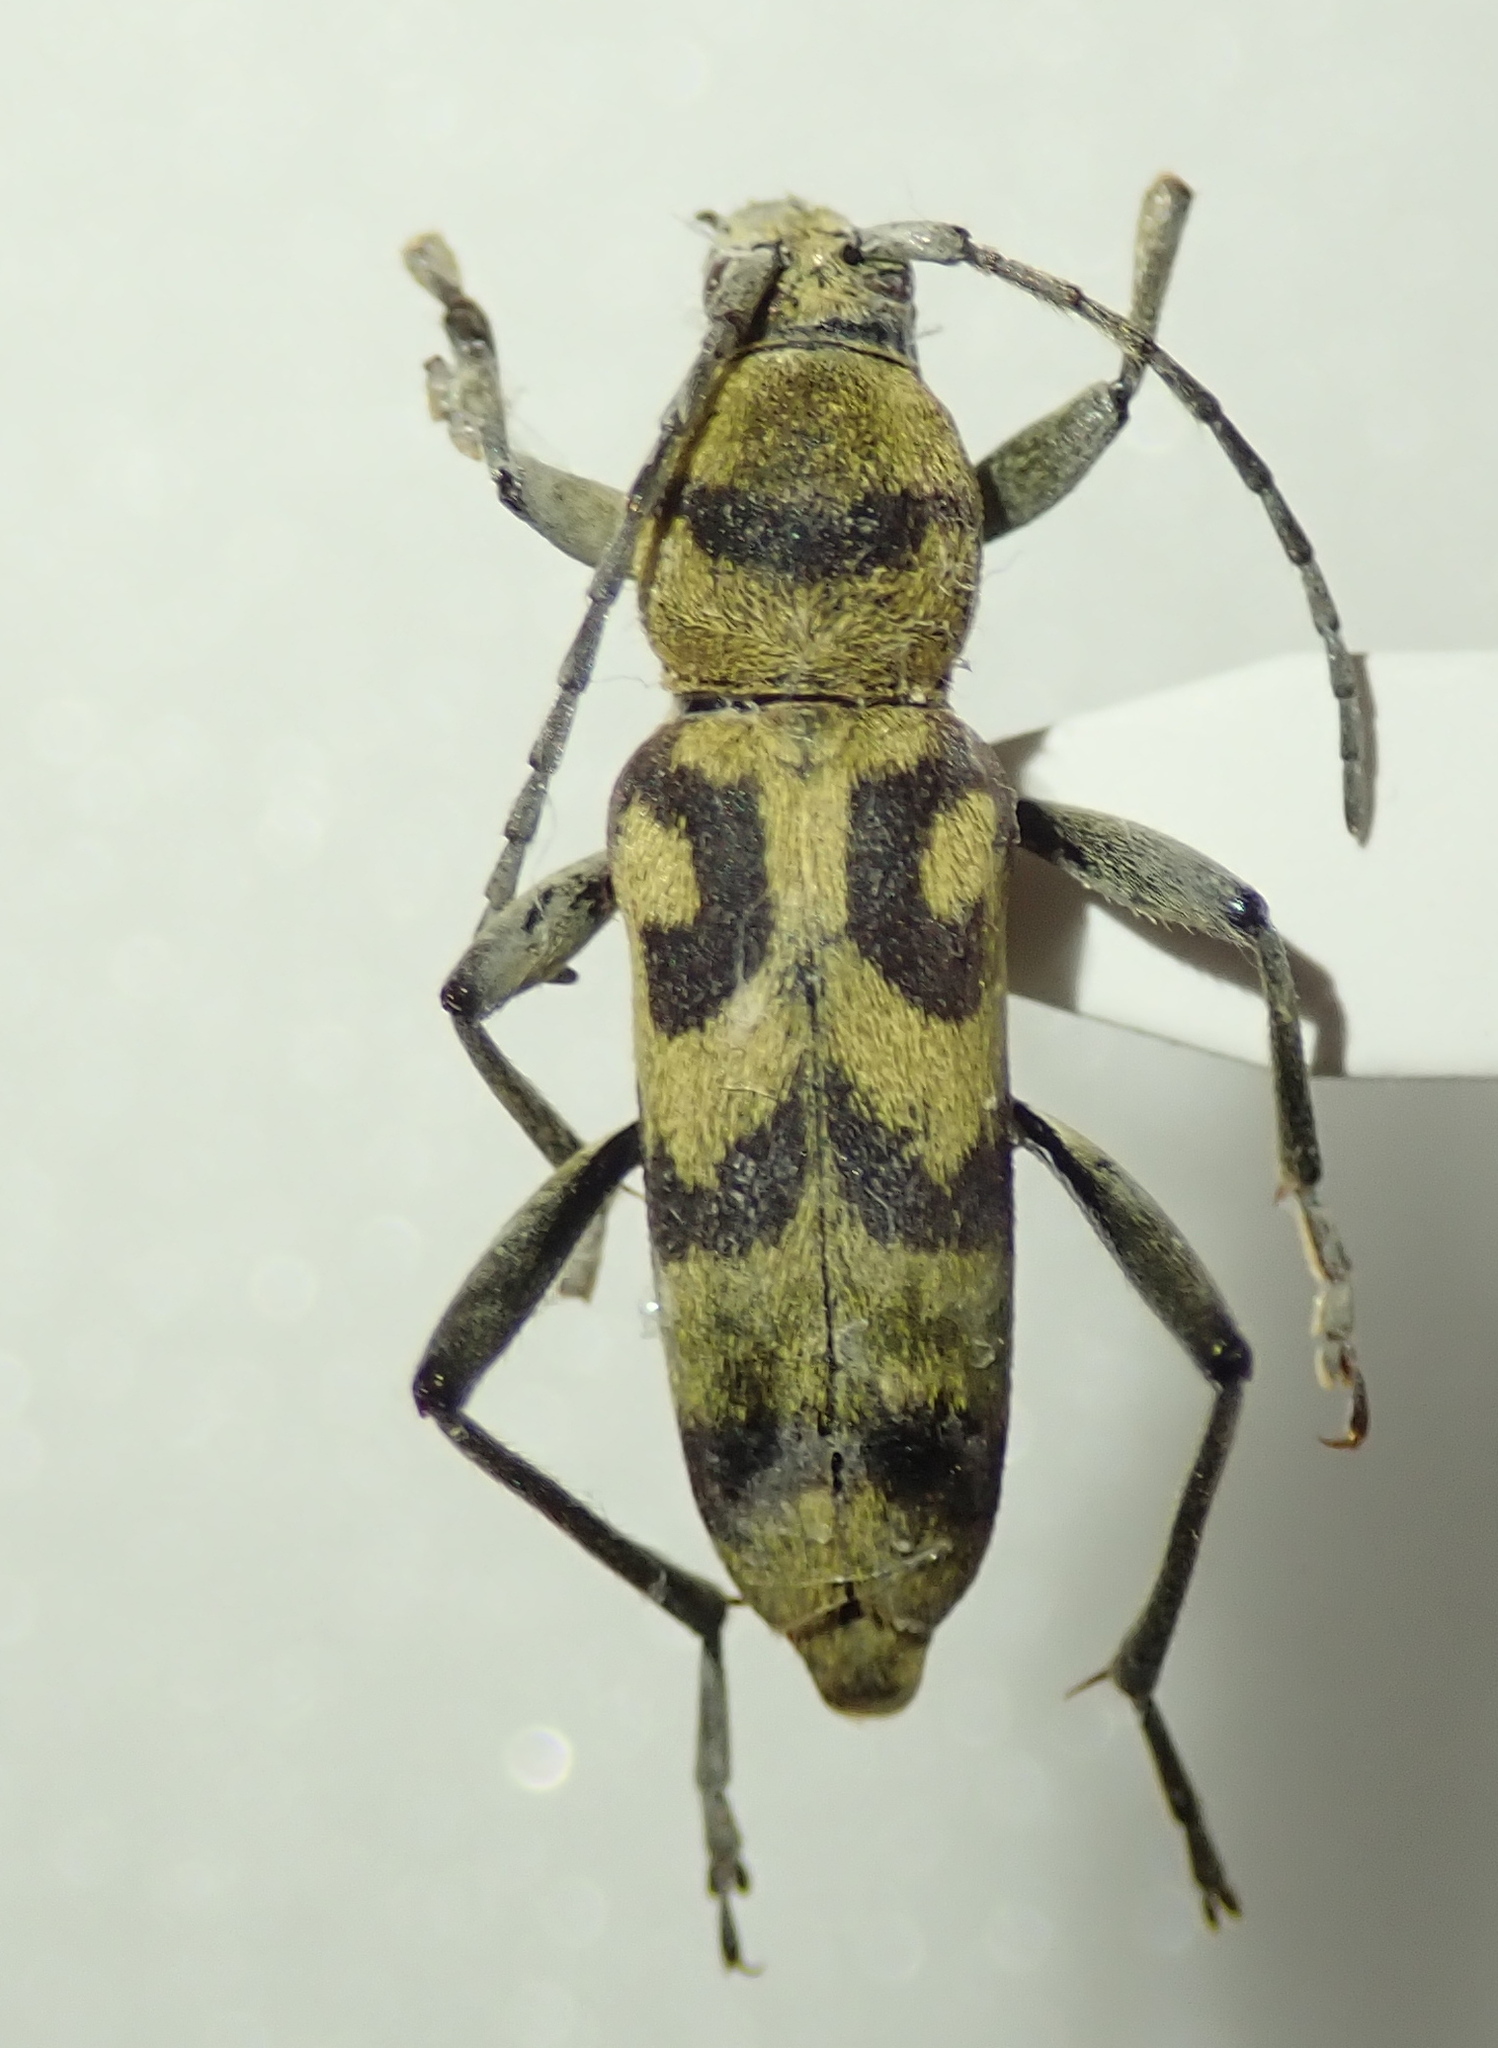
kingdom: Animalia
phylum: Arthropoda
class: Insecta
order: Coleoptera
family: Cerambycidae
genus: Chlorophorus
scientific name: Chlorophorus varius
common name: Grape wood borer
